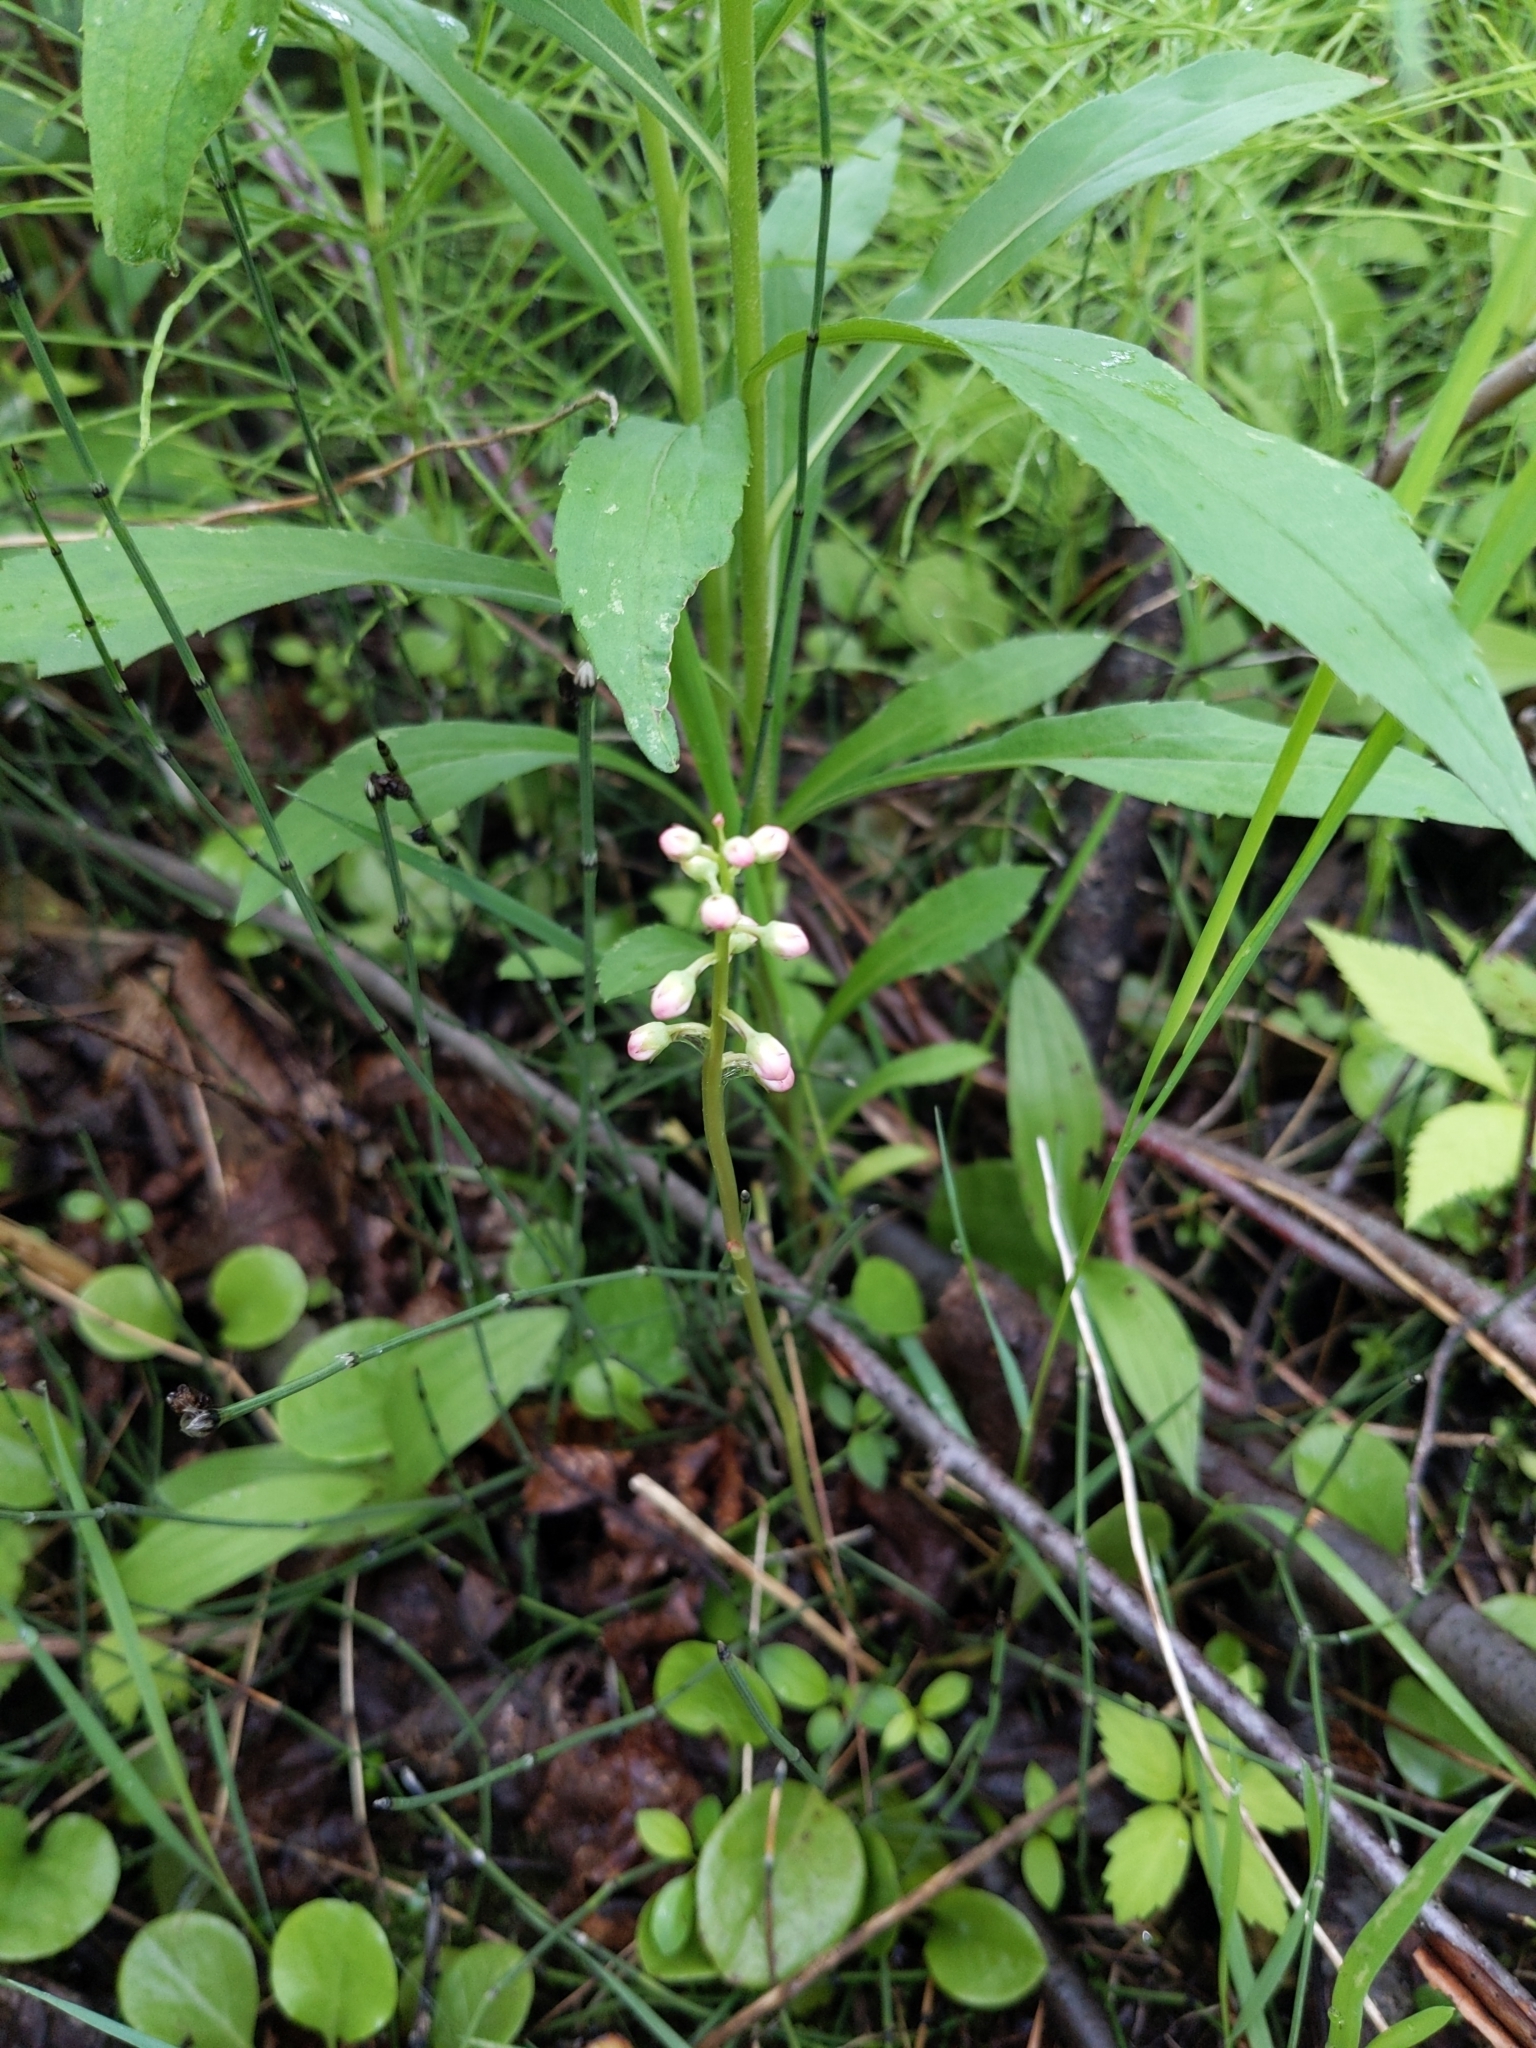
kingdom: Plantae
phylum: Tracheophyta
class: Magnoliopsida
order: Ericales
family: Ericaceae
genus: Pyrola
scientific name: Pyrola asarifolia
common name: Bog wintergreen
